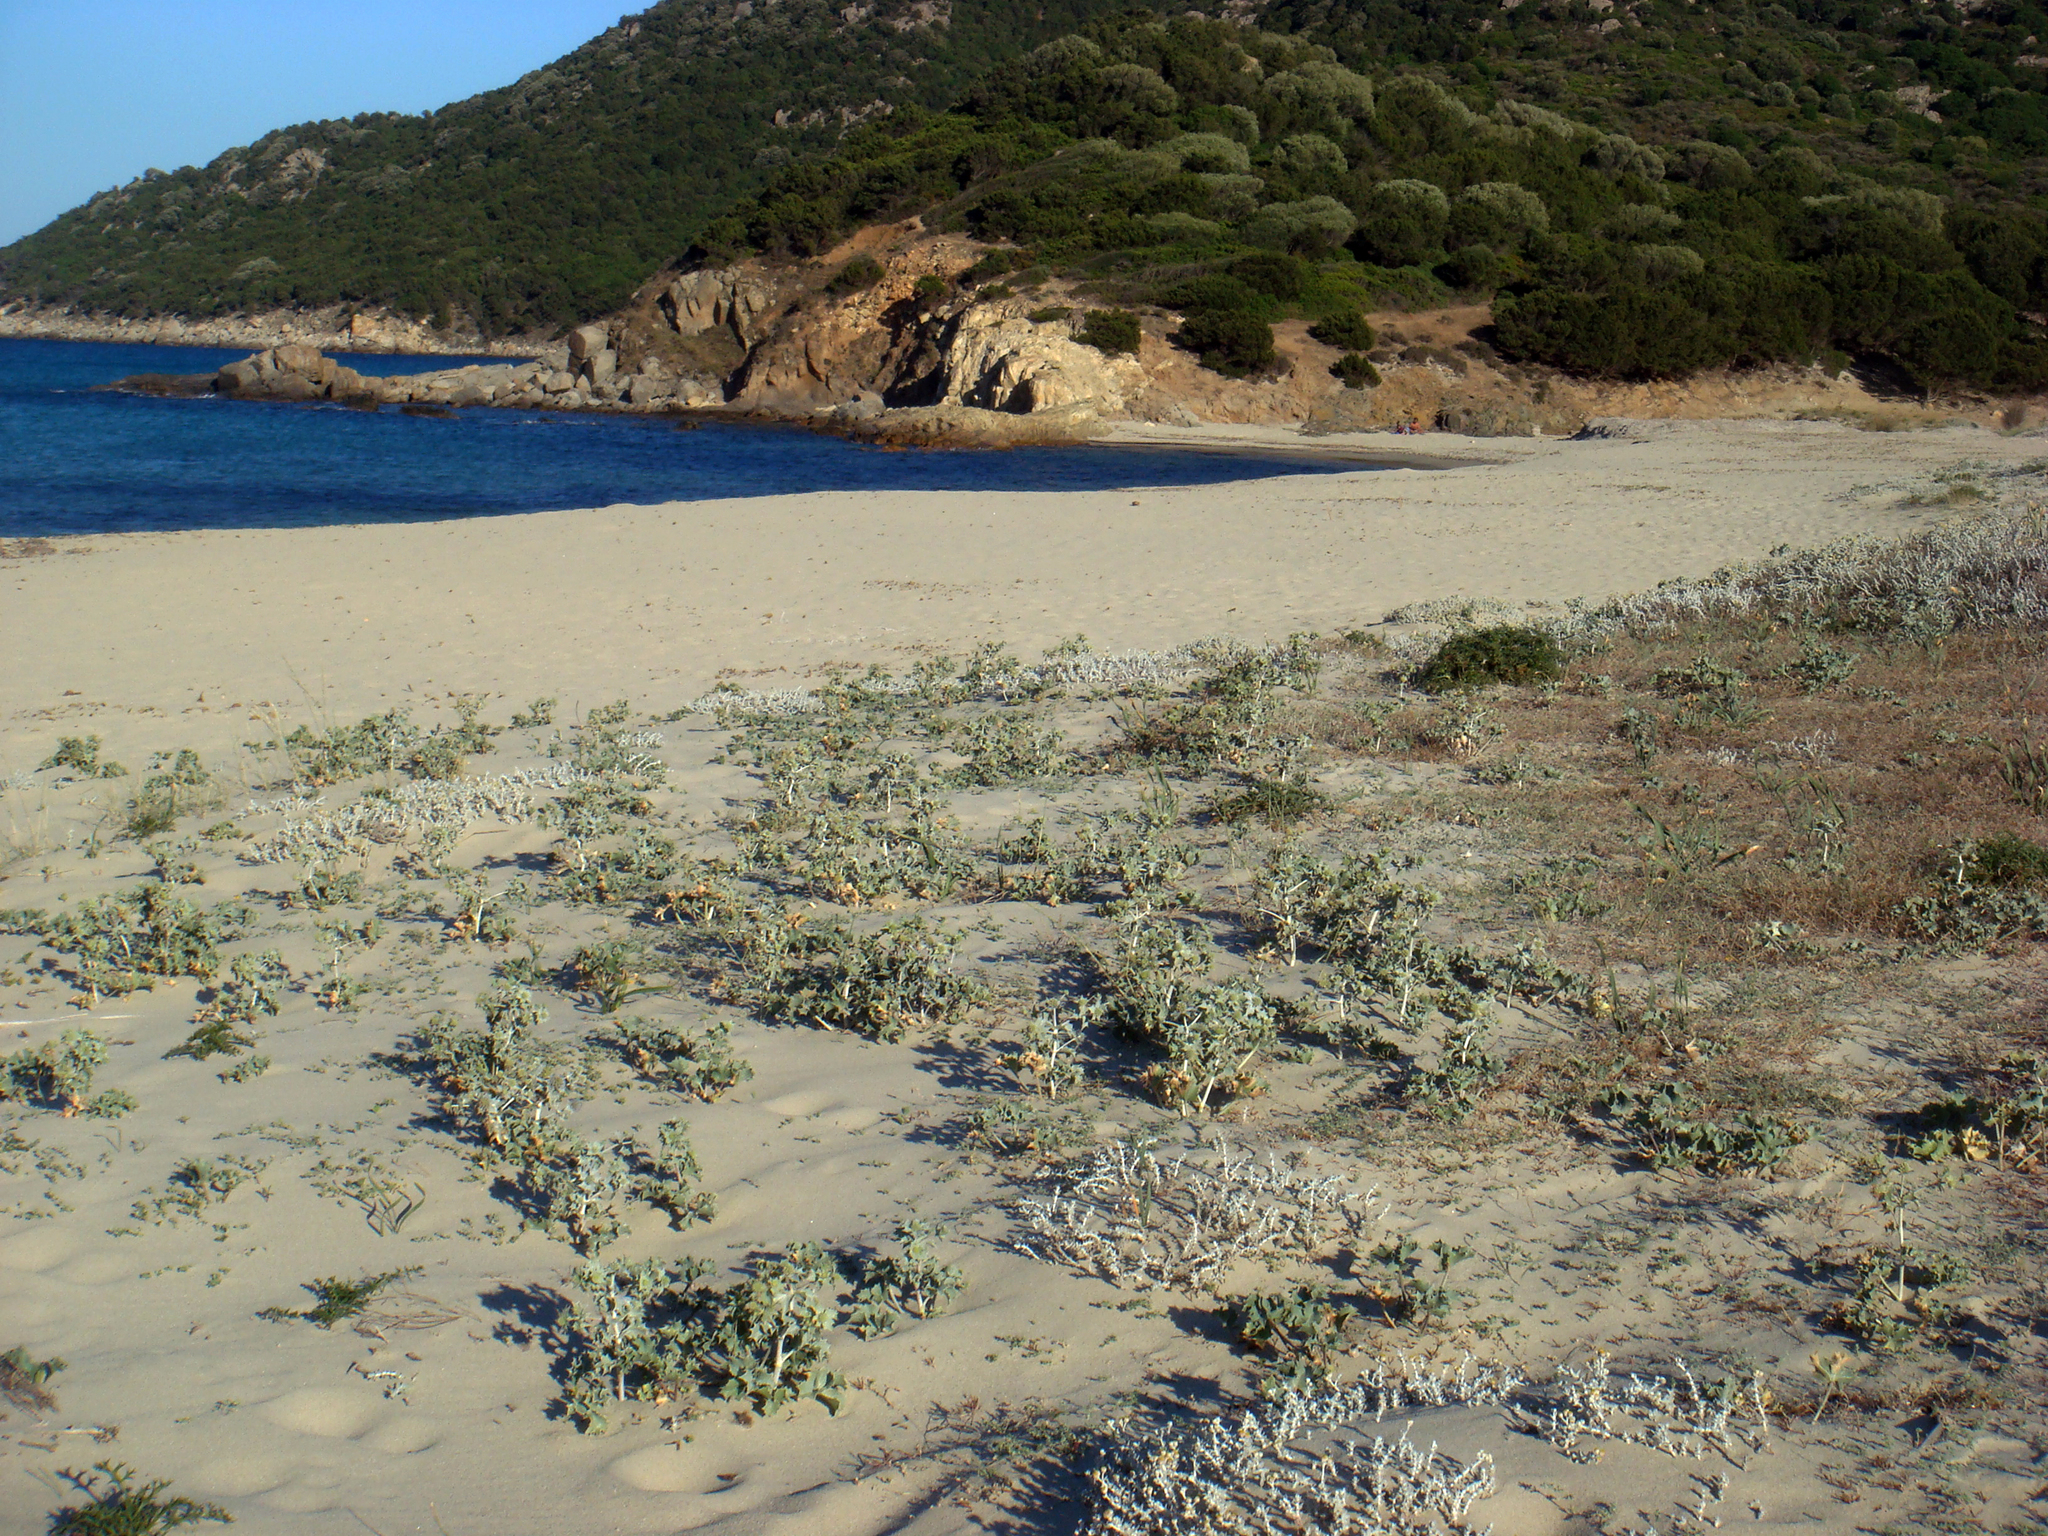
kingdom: Plantae
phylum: Tracheophyta
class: Magnoliopsida
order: Asterales
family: Asteraceae
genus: Achillea
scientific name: Achillea maritima
